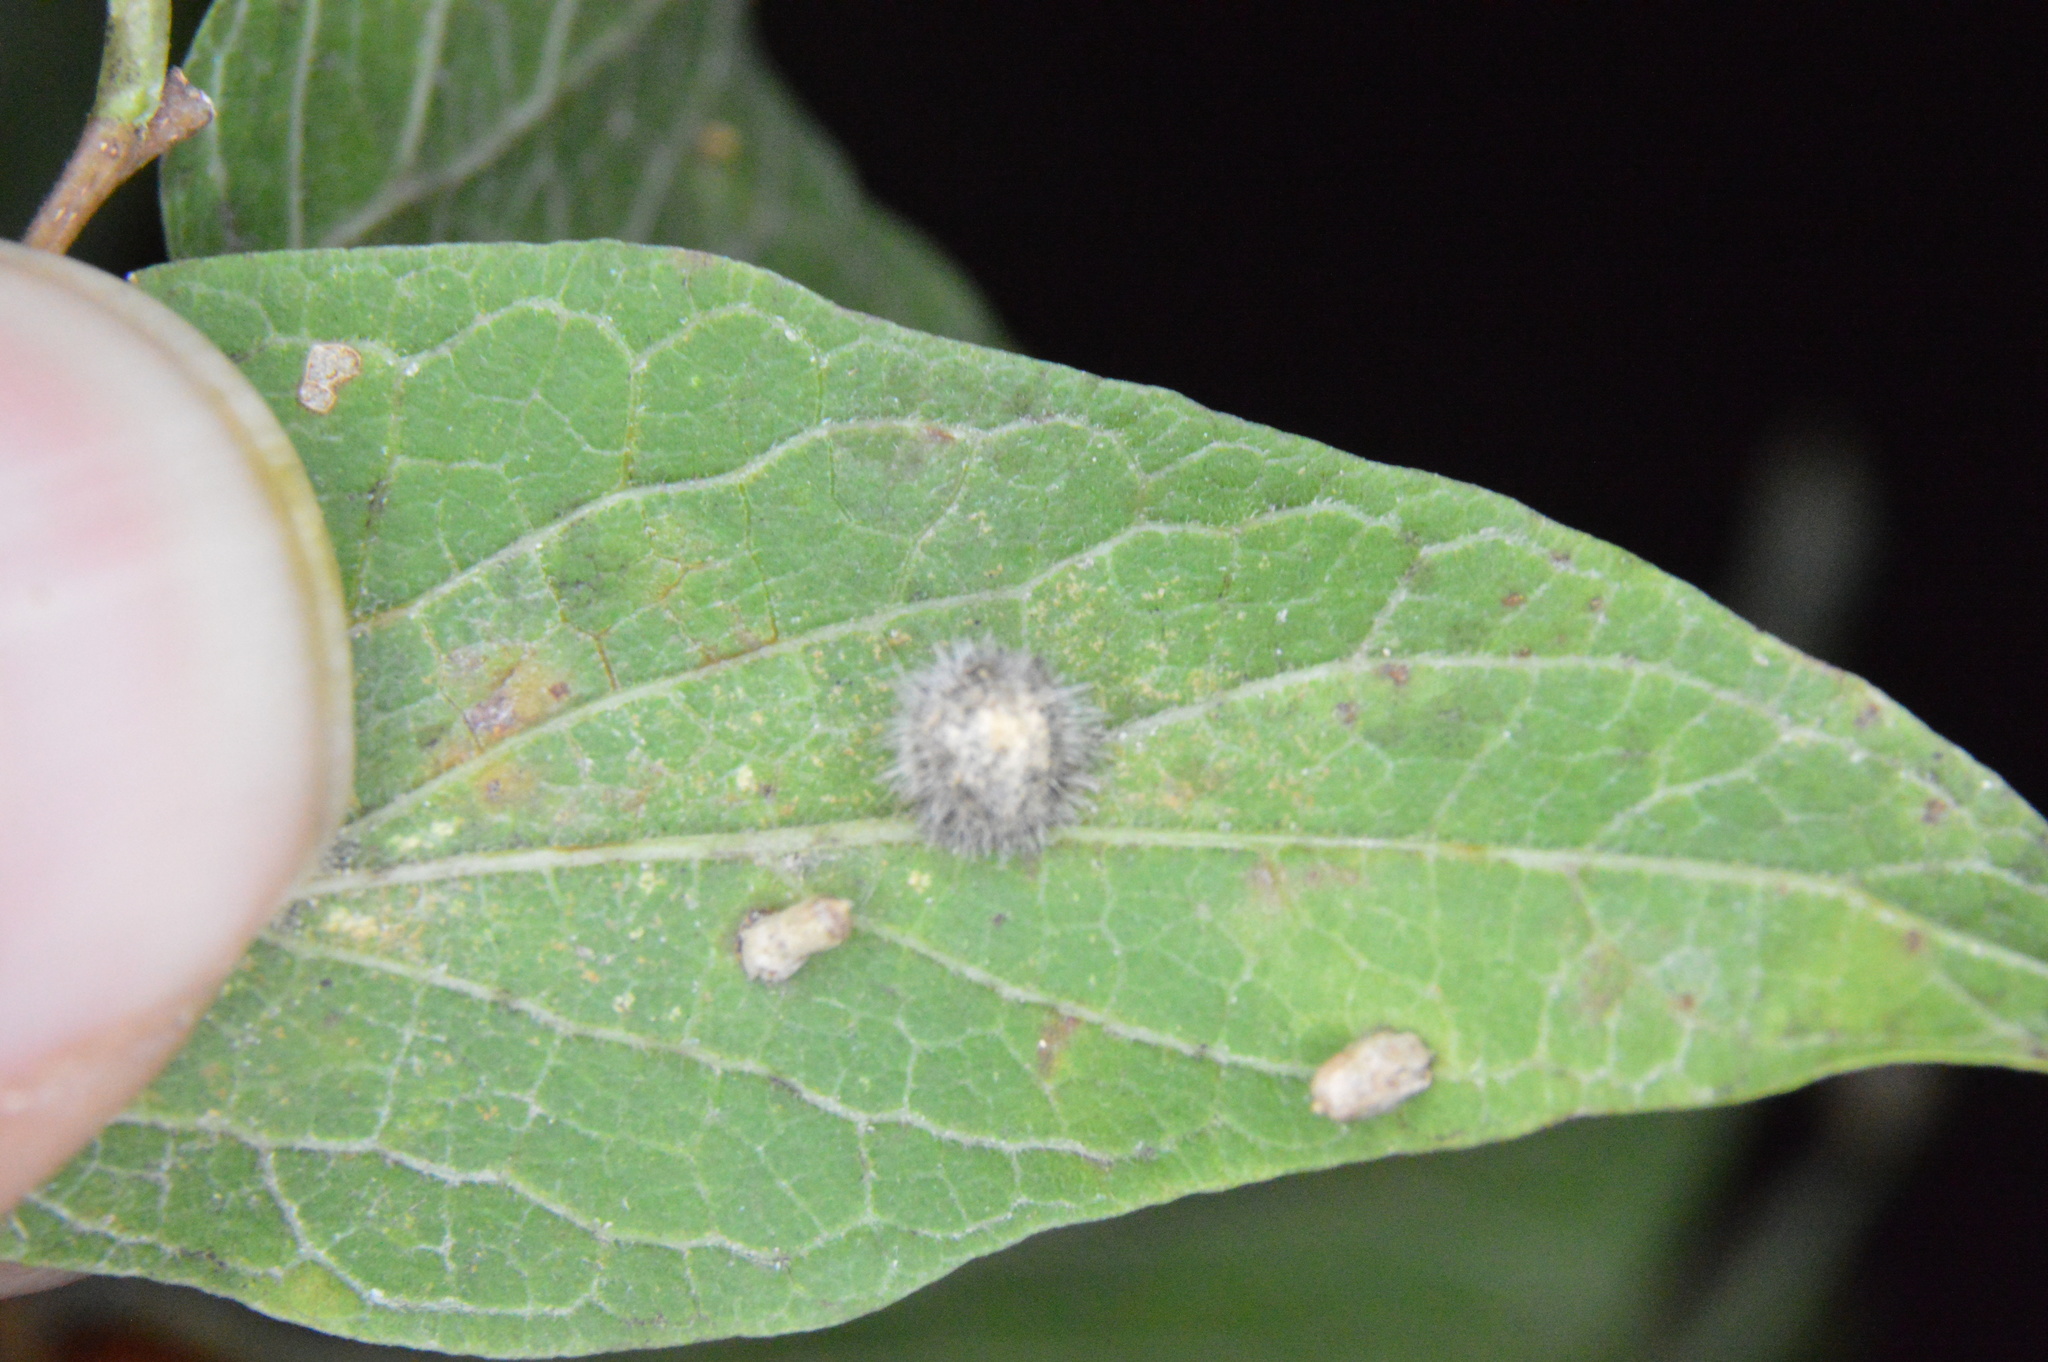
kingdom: Animalia
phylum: Arthropoda
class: Insecta
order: Diptera
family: Cecidomyiidae
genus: Celticecis
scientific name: Celticecis pubescens
